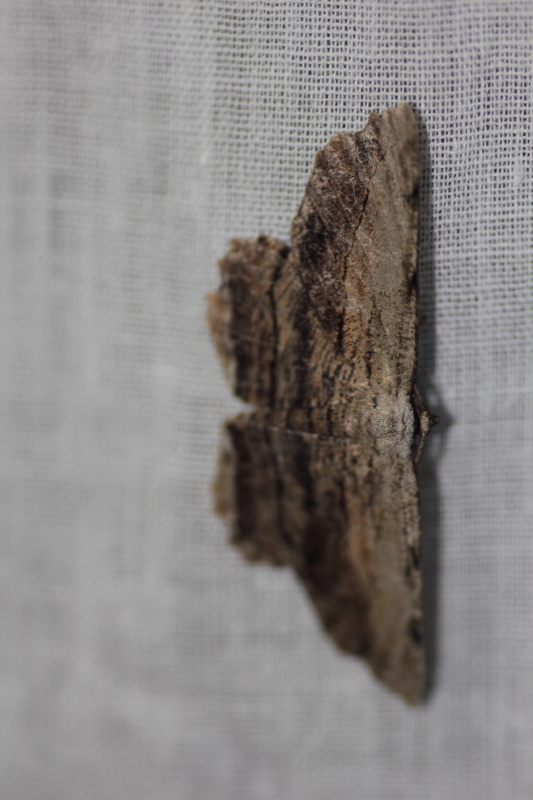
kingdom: Animalia
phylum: Arthropoda
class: Insecta
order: Lepidoptera
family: Geometridae
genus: Lytrosis
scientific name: Lytrosis unitaria
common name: Common lytrosis
